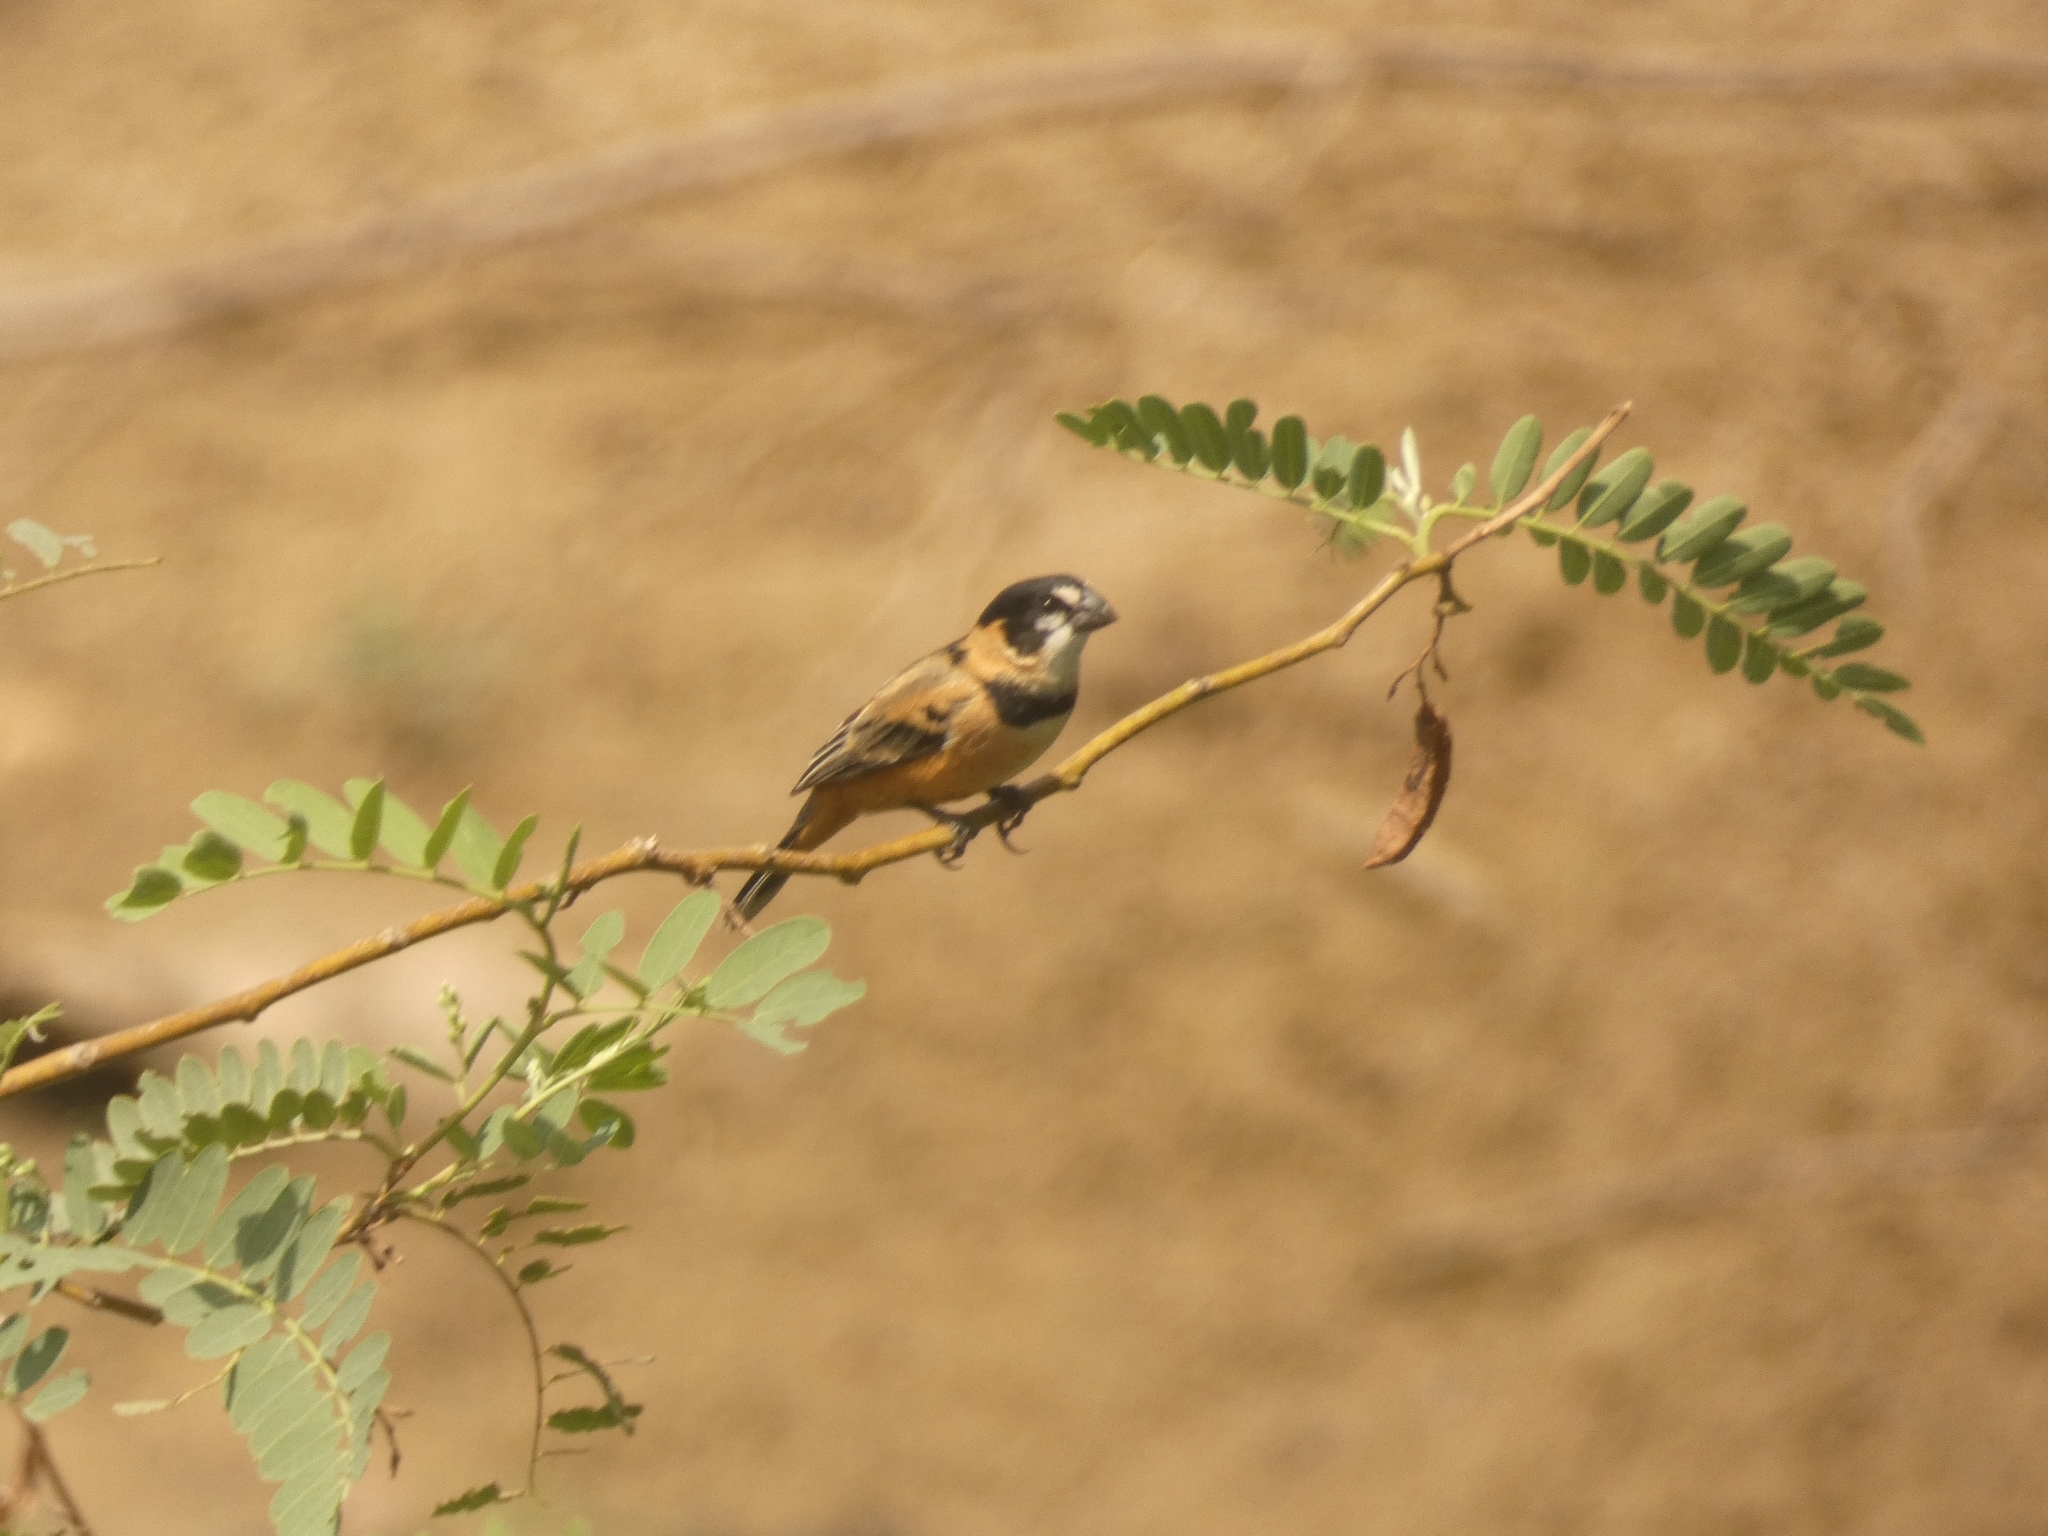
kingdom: Animalia
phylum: Chordata
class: Aves
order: Passeriformes
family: Thraupidae
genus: Sporophila
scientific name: Sporophila collaris
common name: Rusty-collared seedeater
